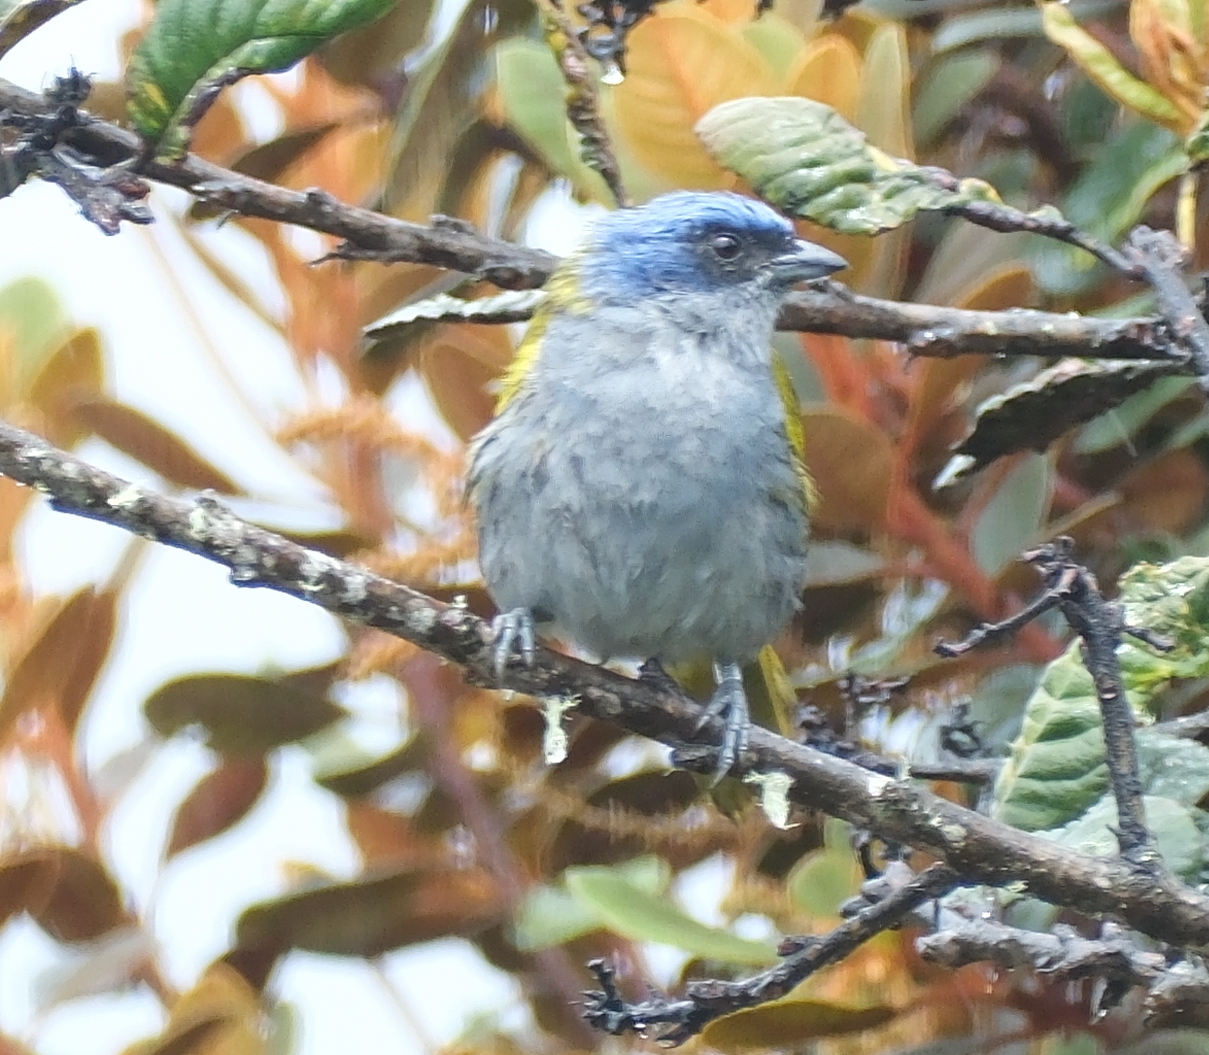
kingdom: Animalia
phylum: Chordata
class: Aves
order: Passeriformes
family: Thraupidae
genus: Sporathraupis
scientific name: Sporathraupis cyanocephala
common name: Blue-capped tanager
